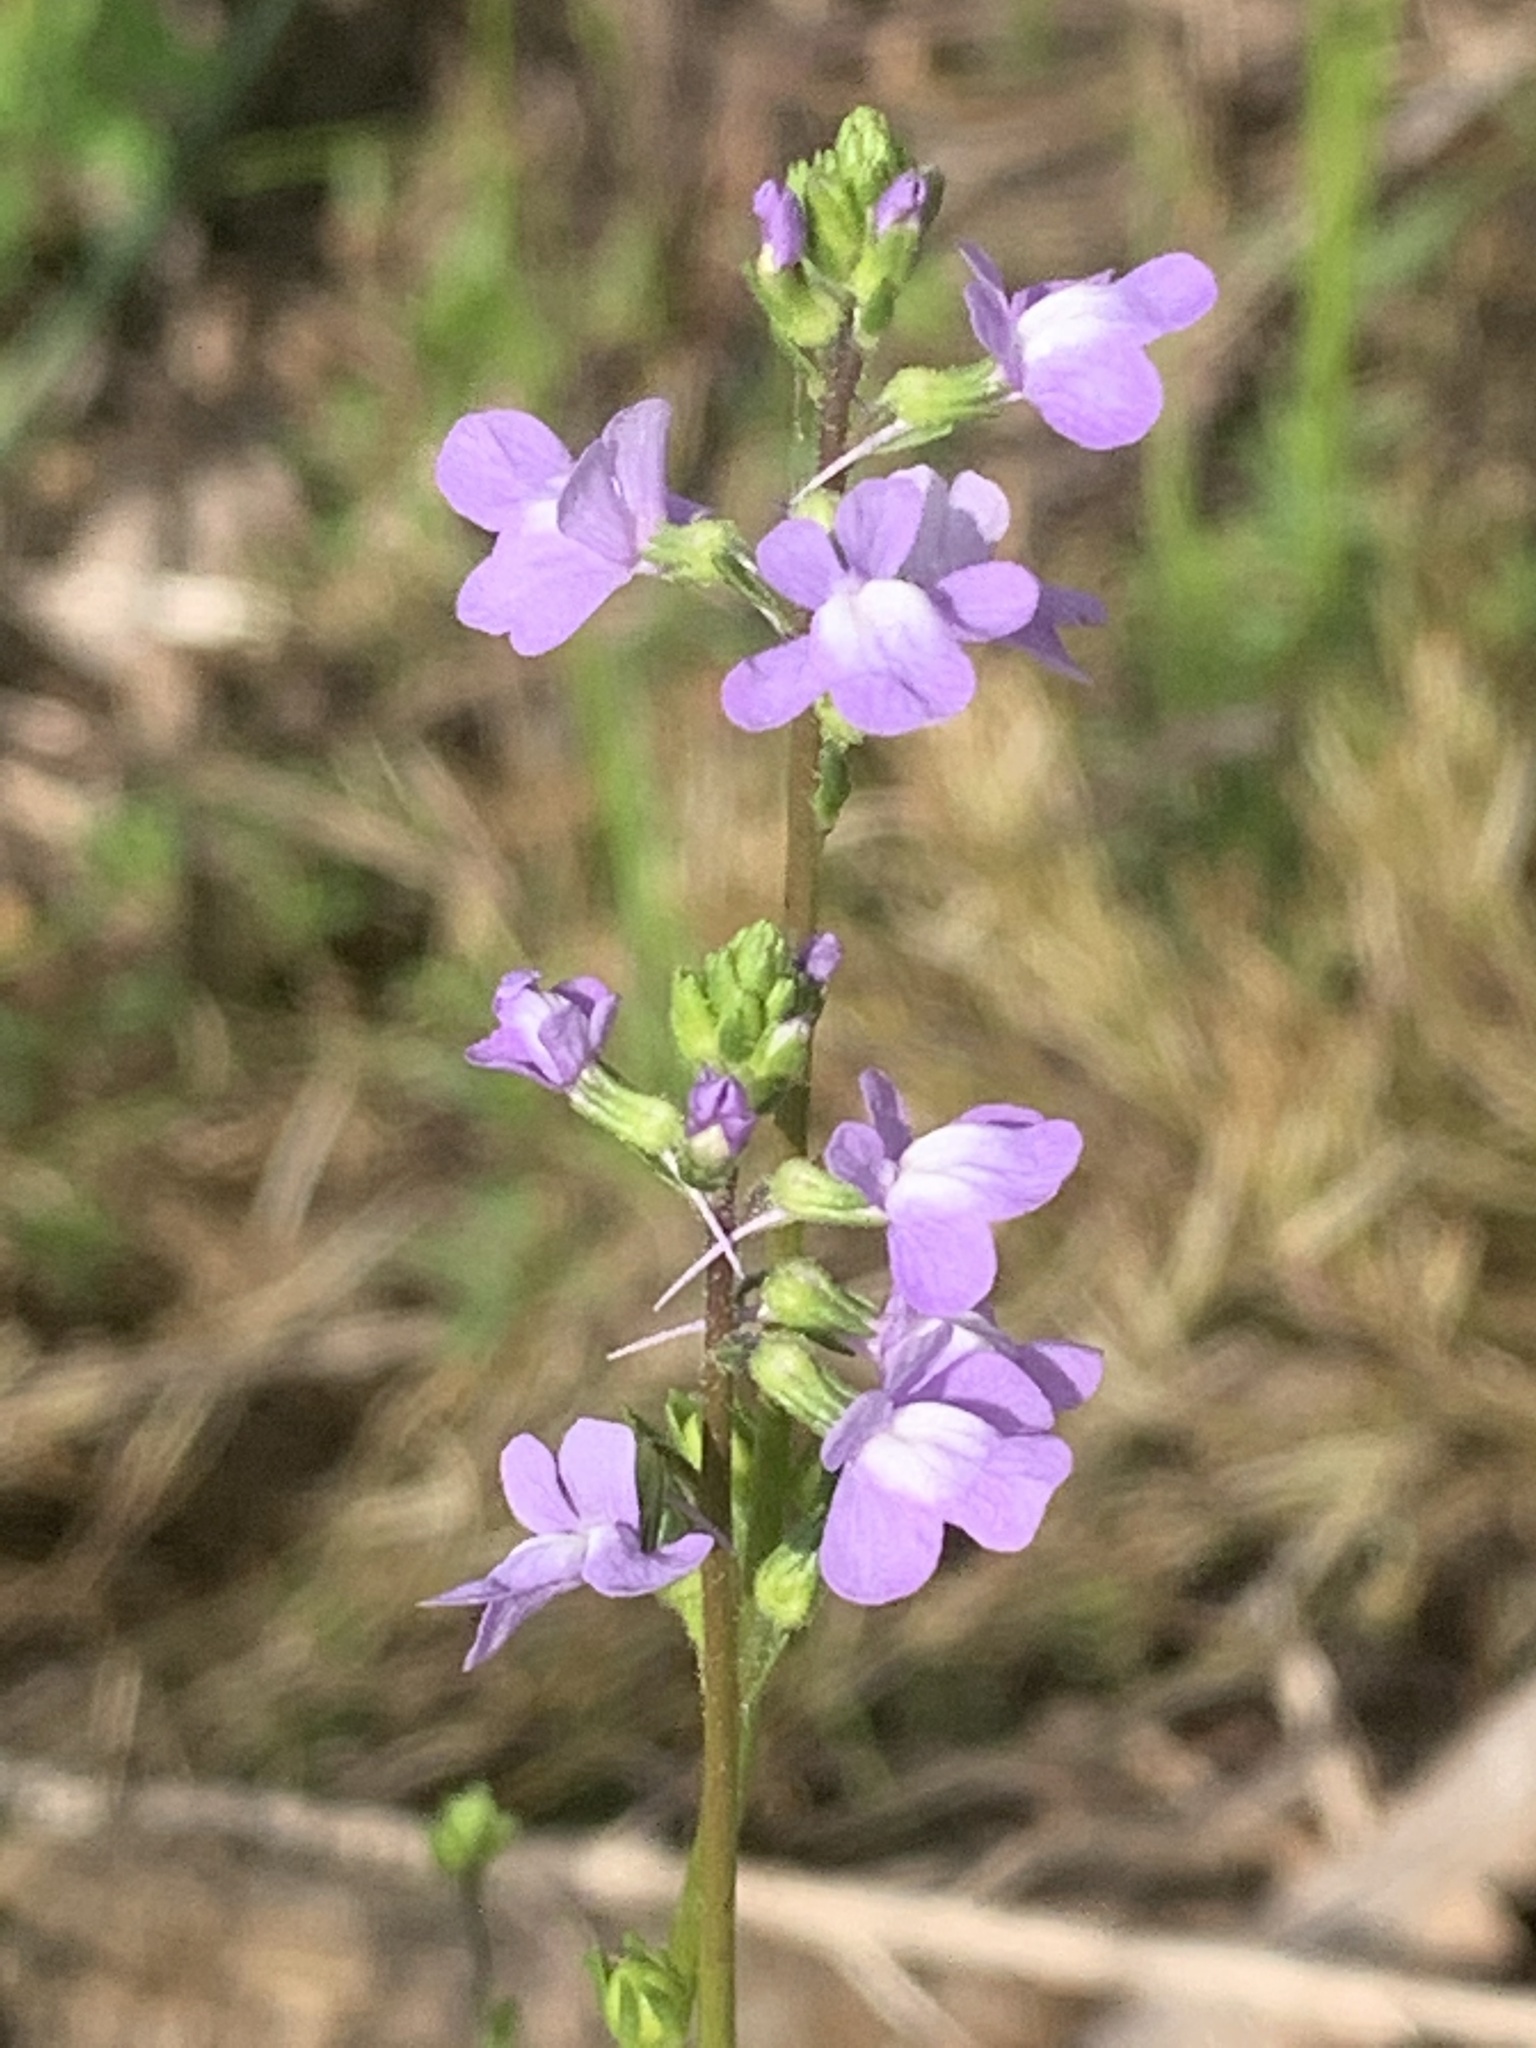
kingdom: Plantae
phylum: Tracheophyta
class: Magnoliopsida
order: Lamiales
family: Plantaginaceae
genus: Nuttallanthus
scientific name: Nuttallanthus canadensis
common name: Blue toadflax
